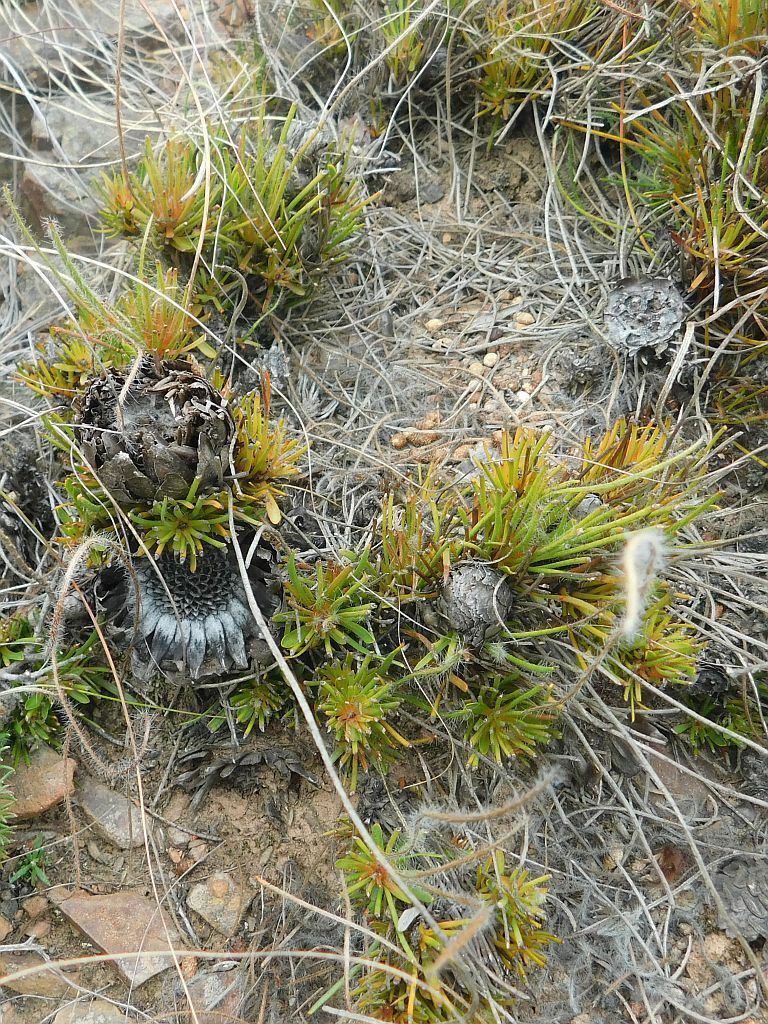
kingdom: Plantae
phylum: Tracheophyta
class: Magnoliopsida
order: Proteales
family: Proteaceae
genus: Protea
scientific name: Protea restionifolia
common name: Reed-leaf sugarbush
